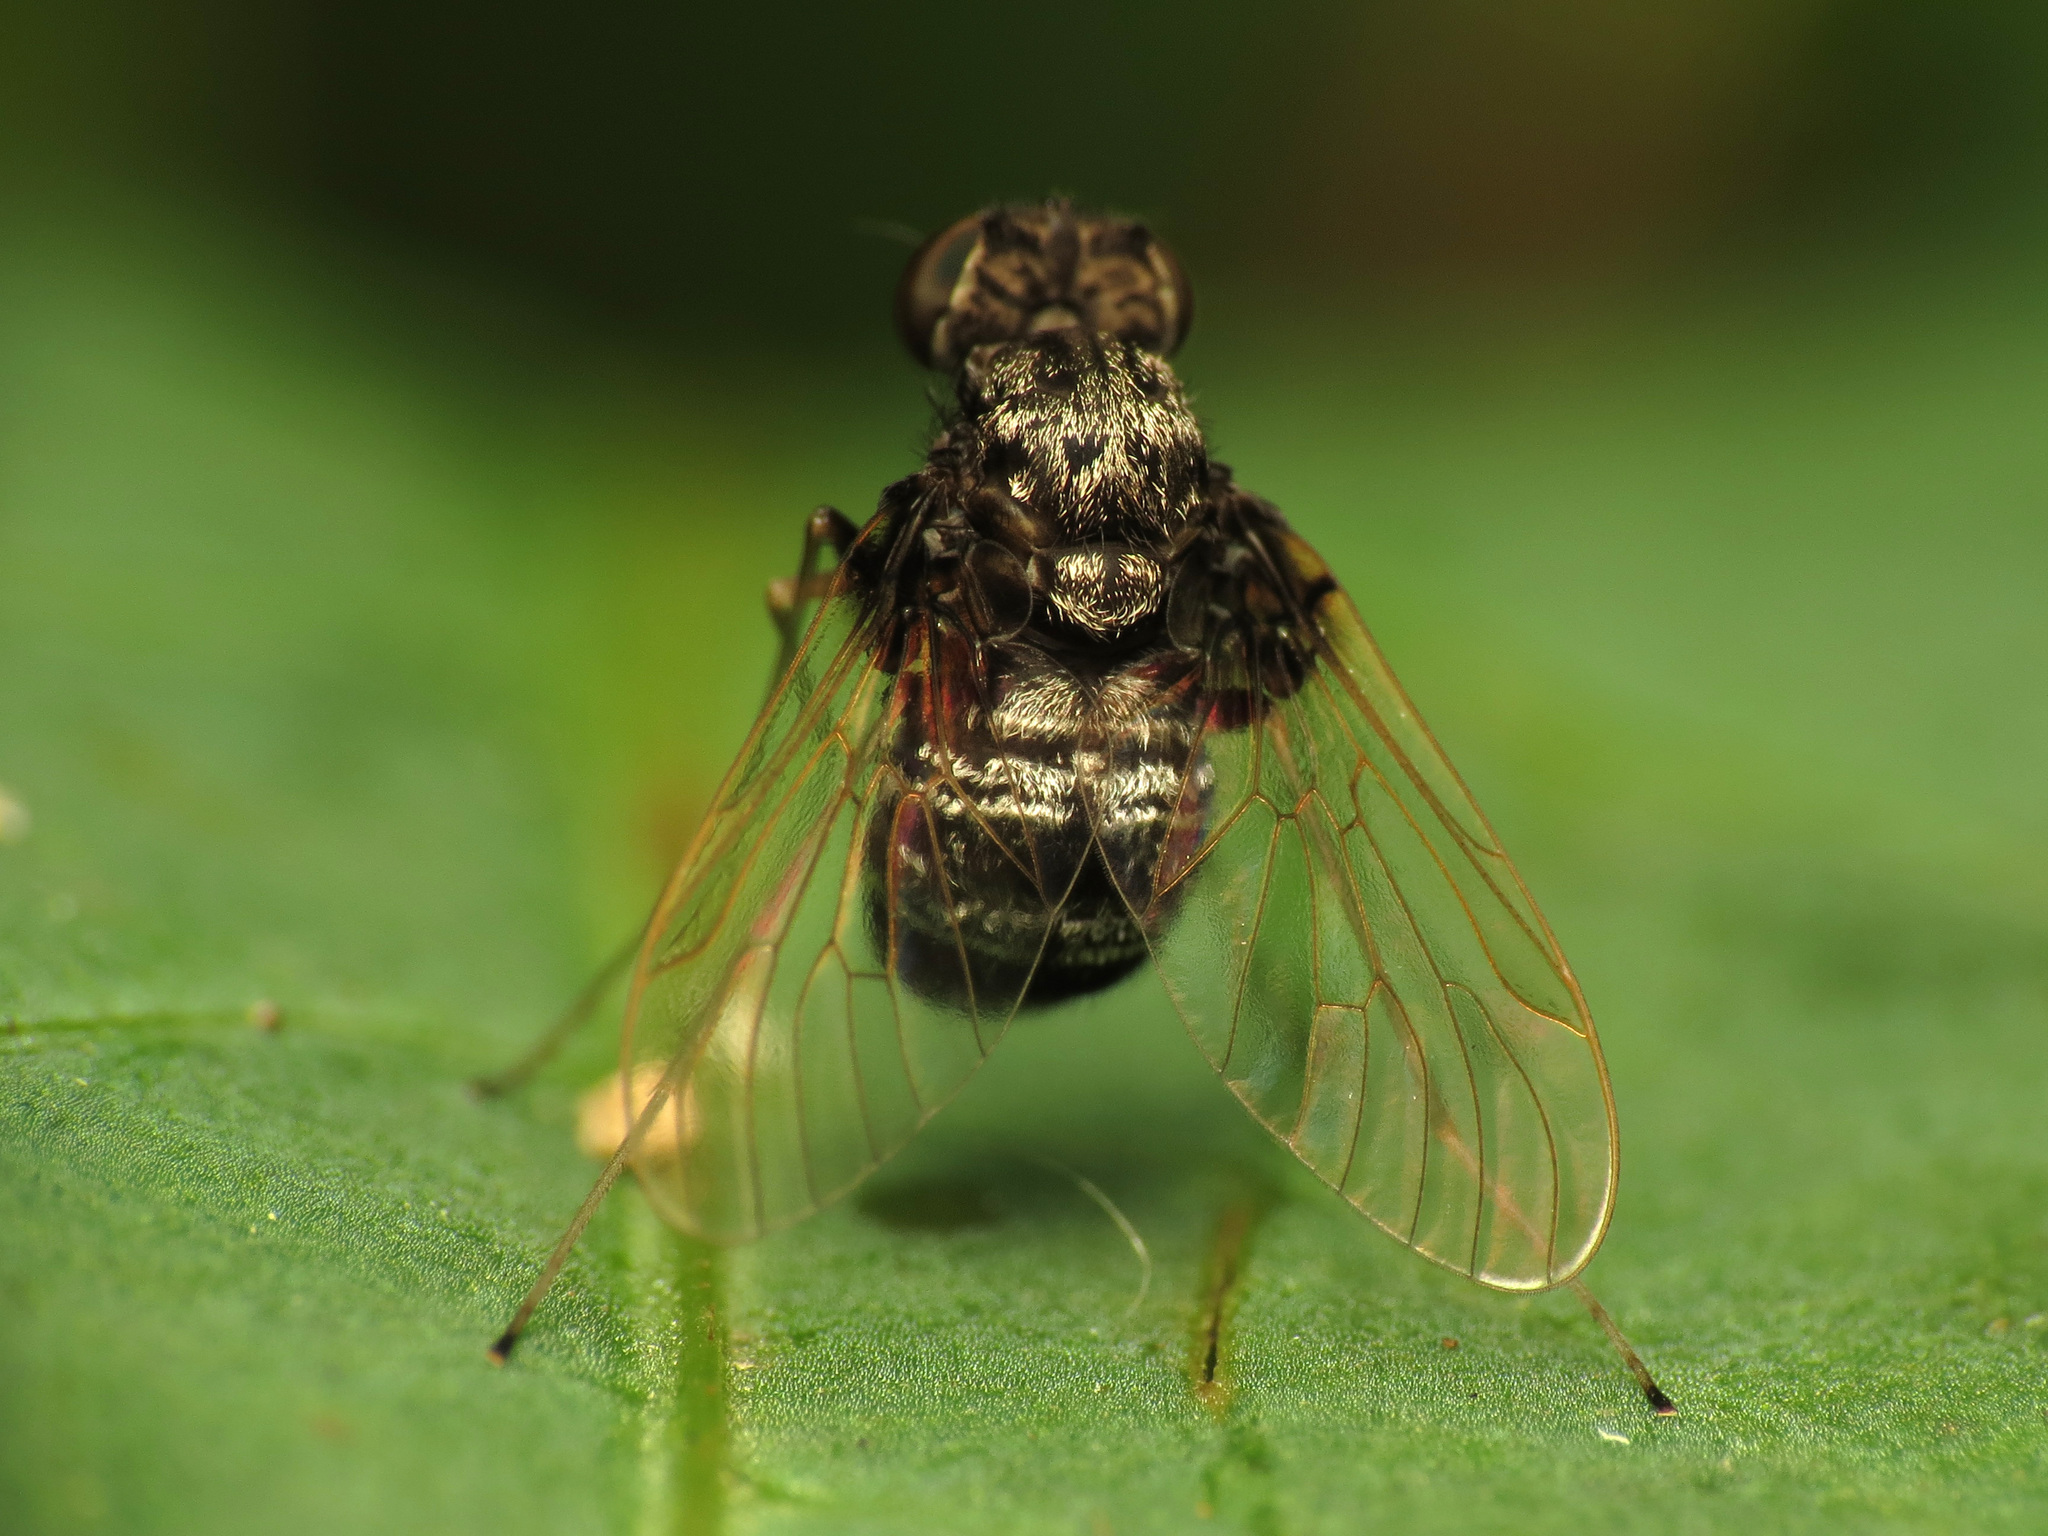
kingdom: Animalia
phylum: Arthropoda
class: Insecta
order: Diptera
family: Rhagionidae
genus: Chrysopilus
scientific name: Chrysopilus basilaris
